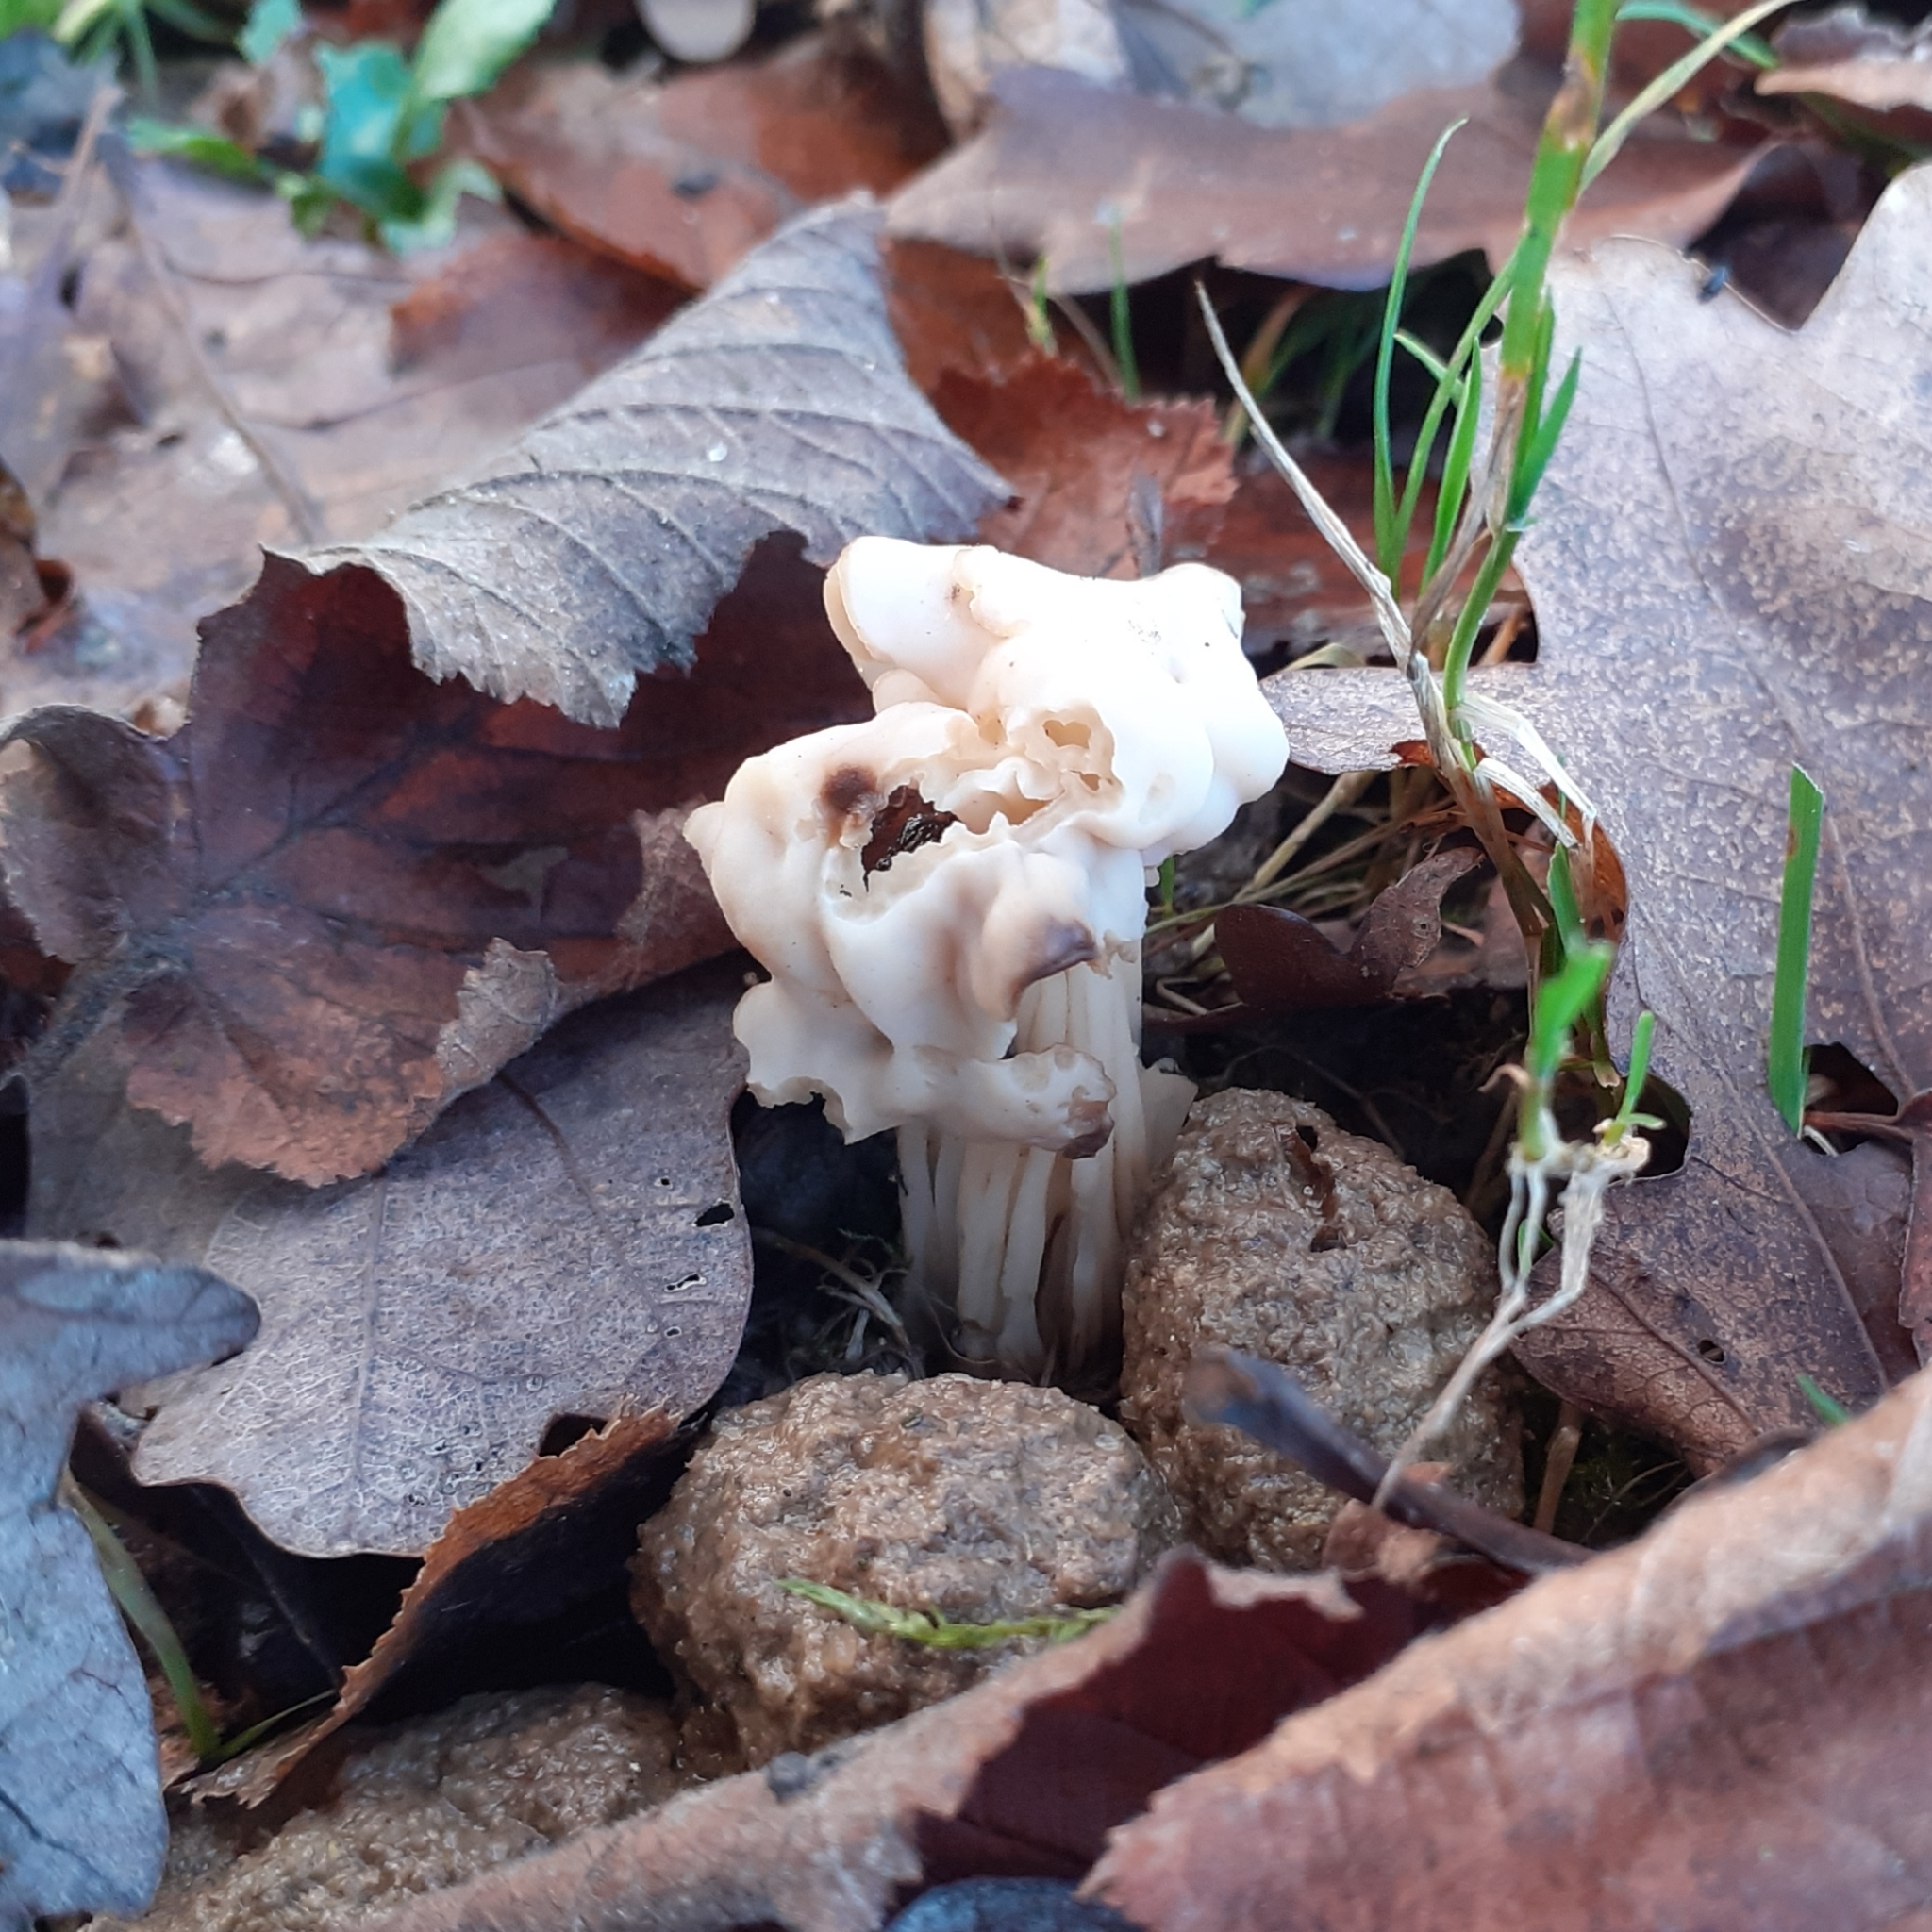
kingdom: Fungi
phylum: Ascomycota
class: Pezizomycetes
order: Pezizales
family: Helvellaceae
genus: Helvella
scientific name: Helvella crispa
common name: White saddle
